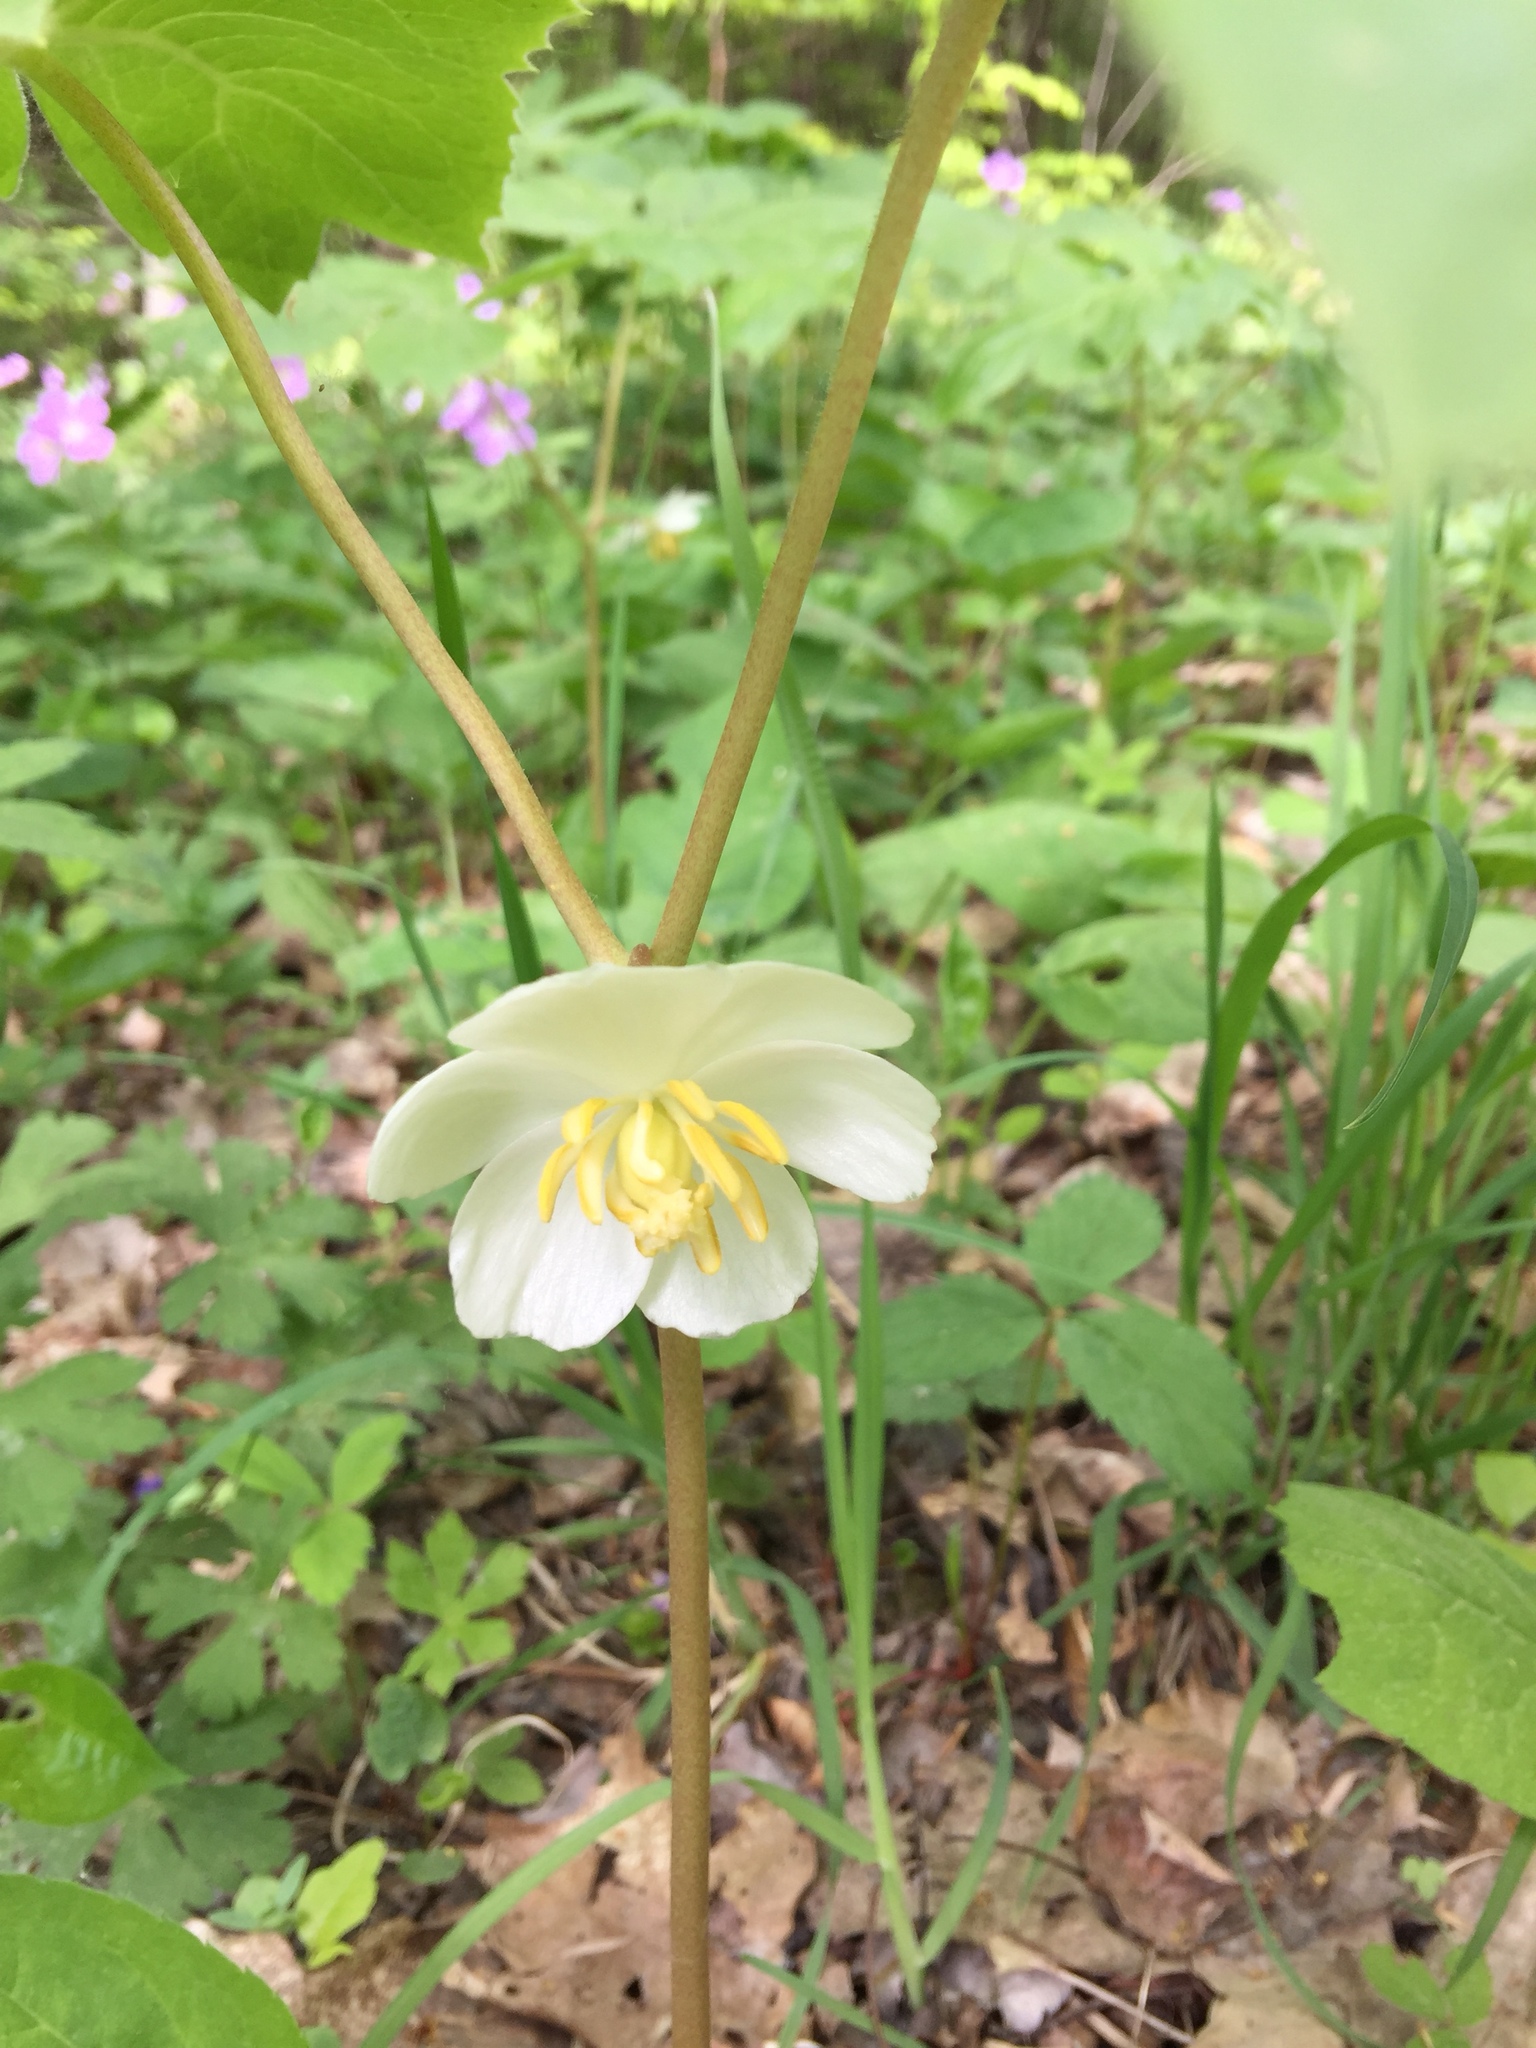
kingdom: Plantae
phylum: Tracheophyta
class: Magnoliopsida
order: Ranunculales
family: Berberidaceae
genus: Podophyllum
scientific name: Podophyllum peltatum
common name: Wild mandrake
